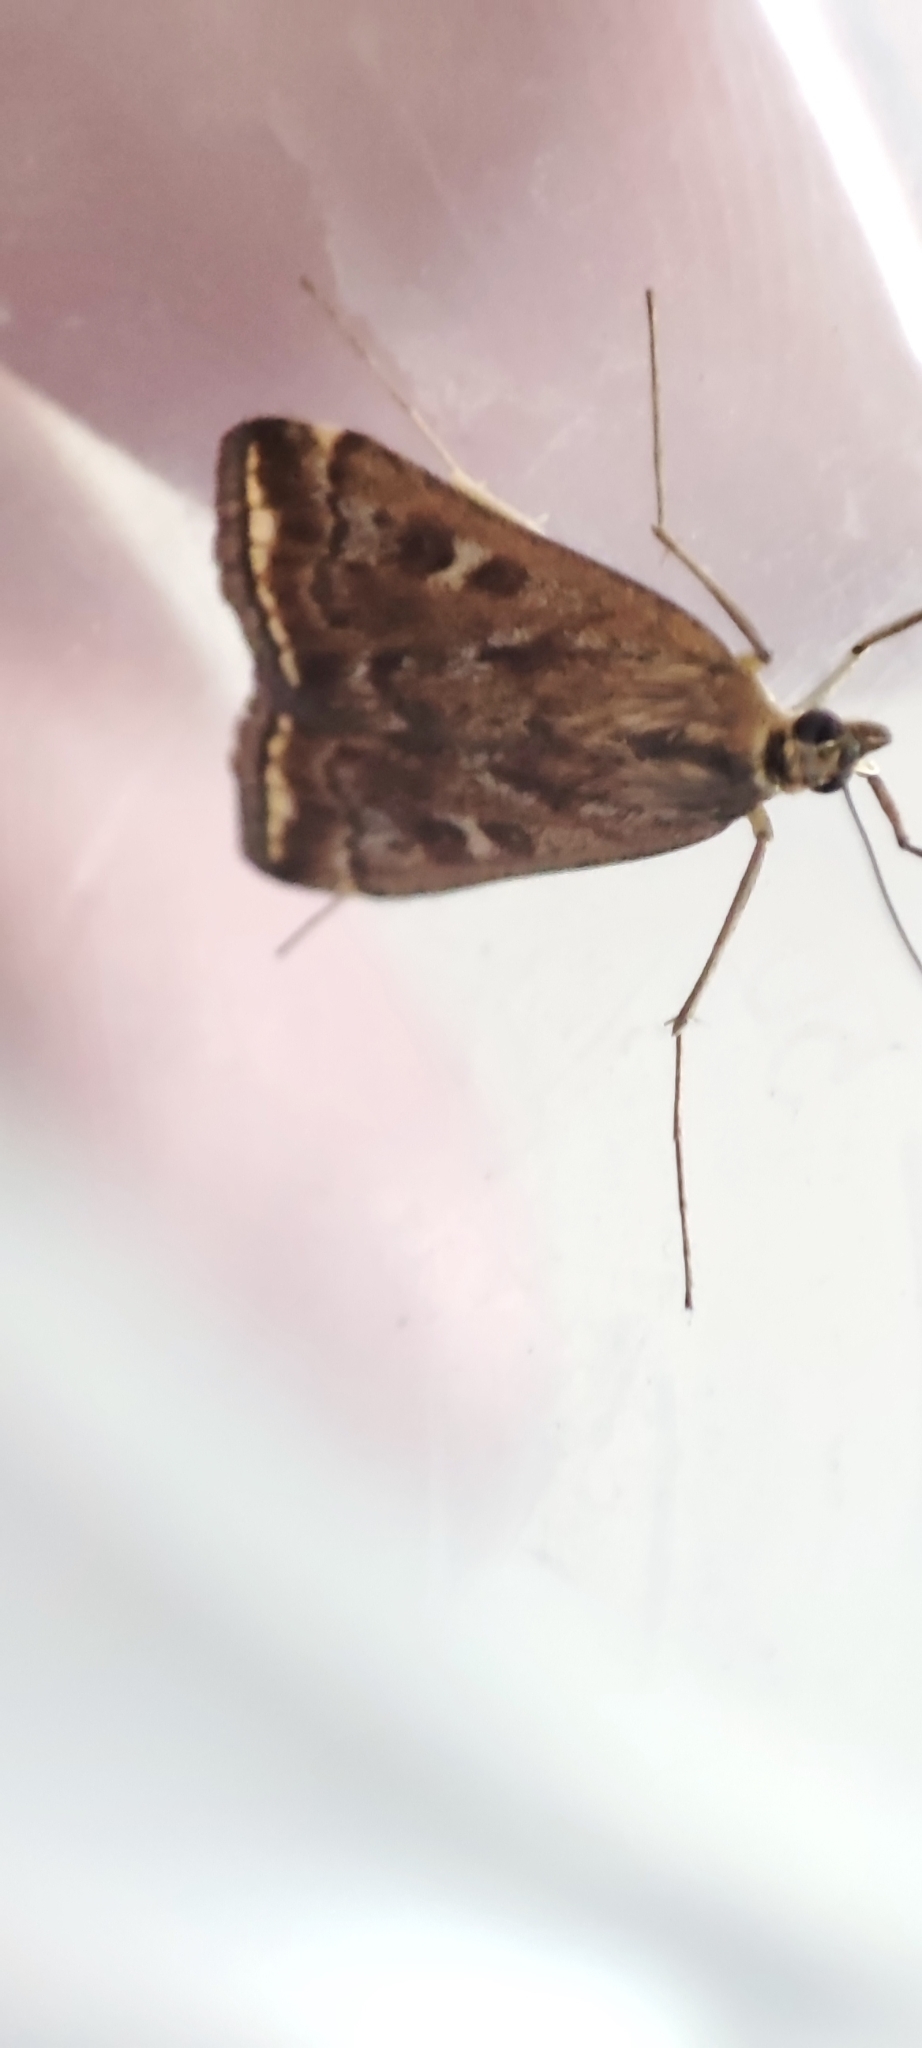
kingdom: Animalia
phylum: Arthropoda
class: Insecta
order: Lepidoptera
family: Crambidae
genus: Loxostege
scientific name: Loxostege sticticalis
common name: Crambid moth
